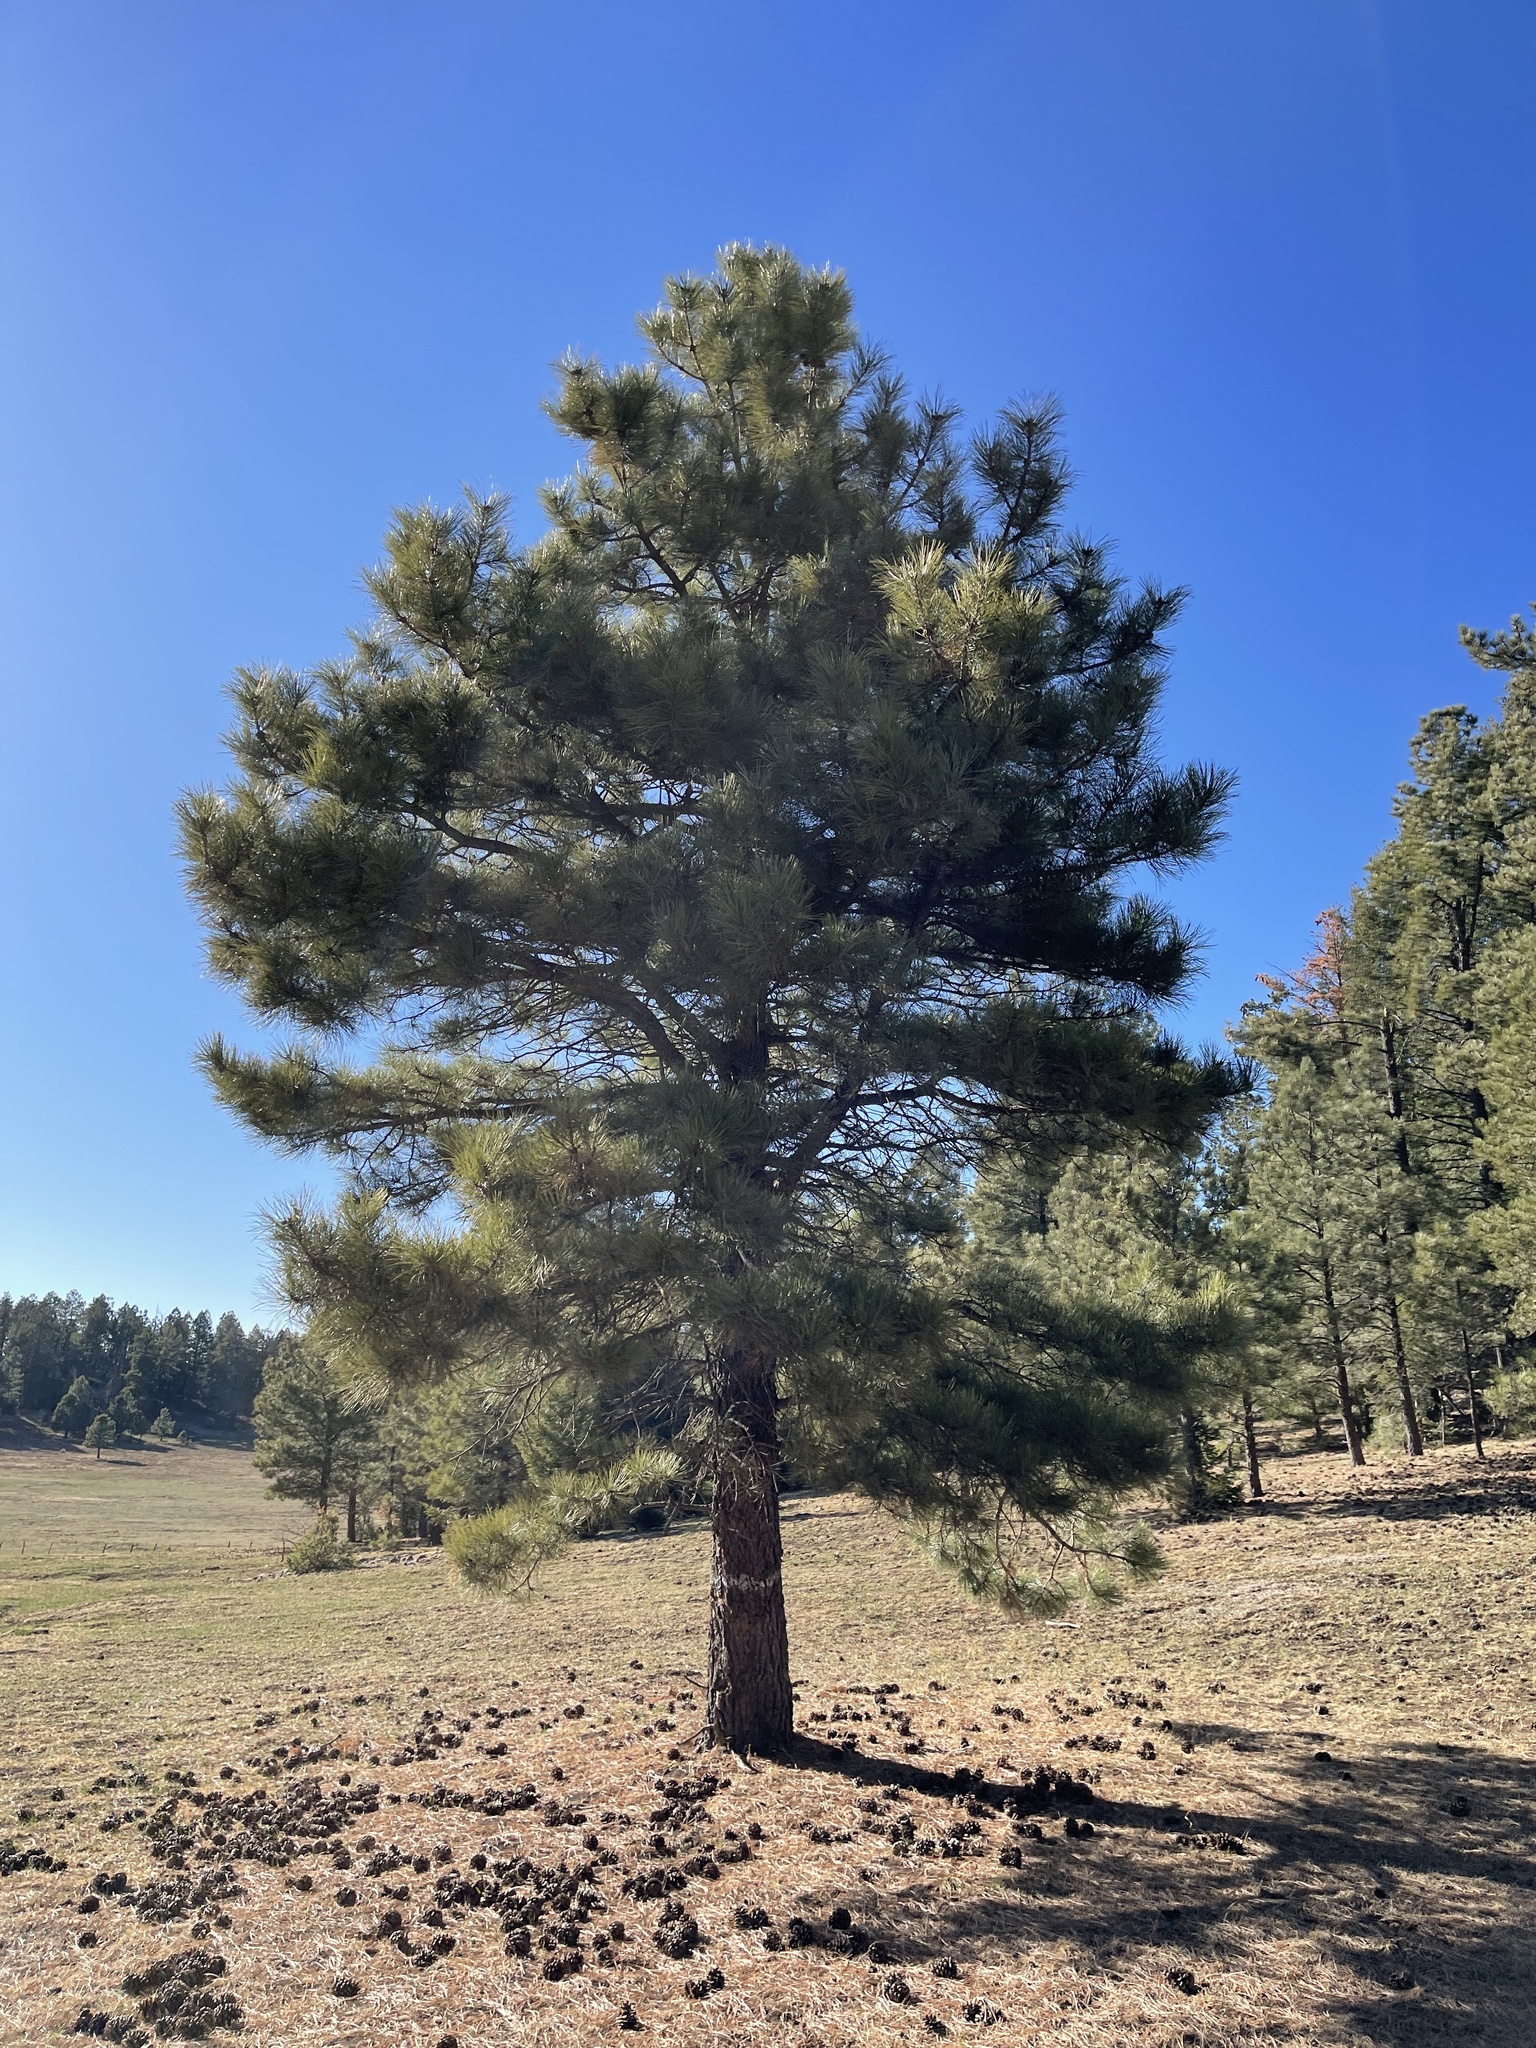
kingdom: Plantae
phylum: Tracheophyta
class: Pinopsida
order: Pinales
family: Pinaceae
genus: Pinus
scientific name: Pinus ponderosa
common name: Western yellow-pine
